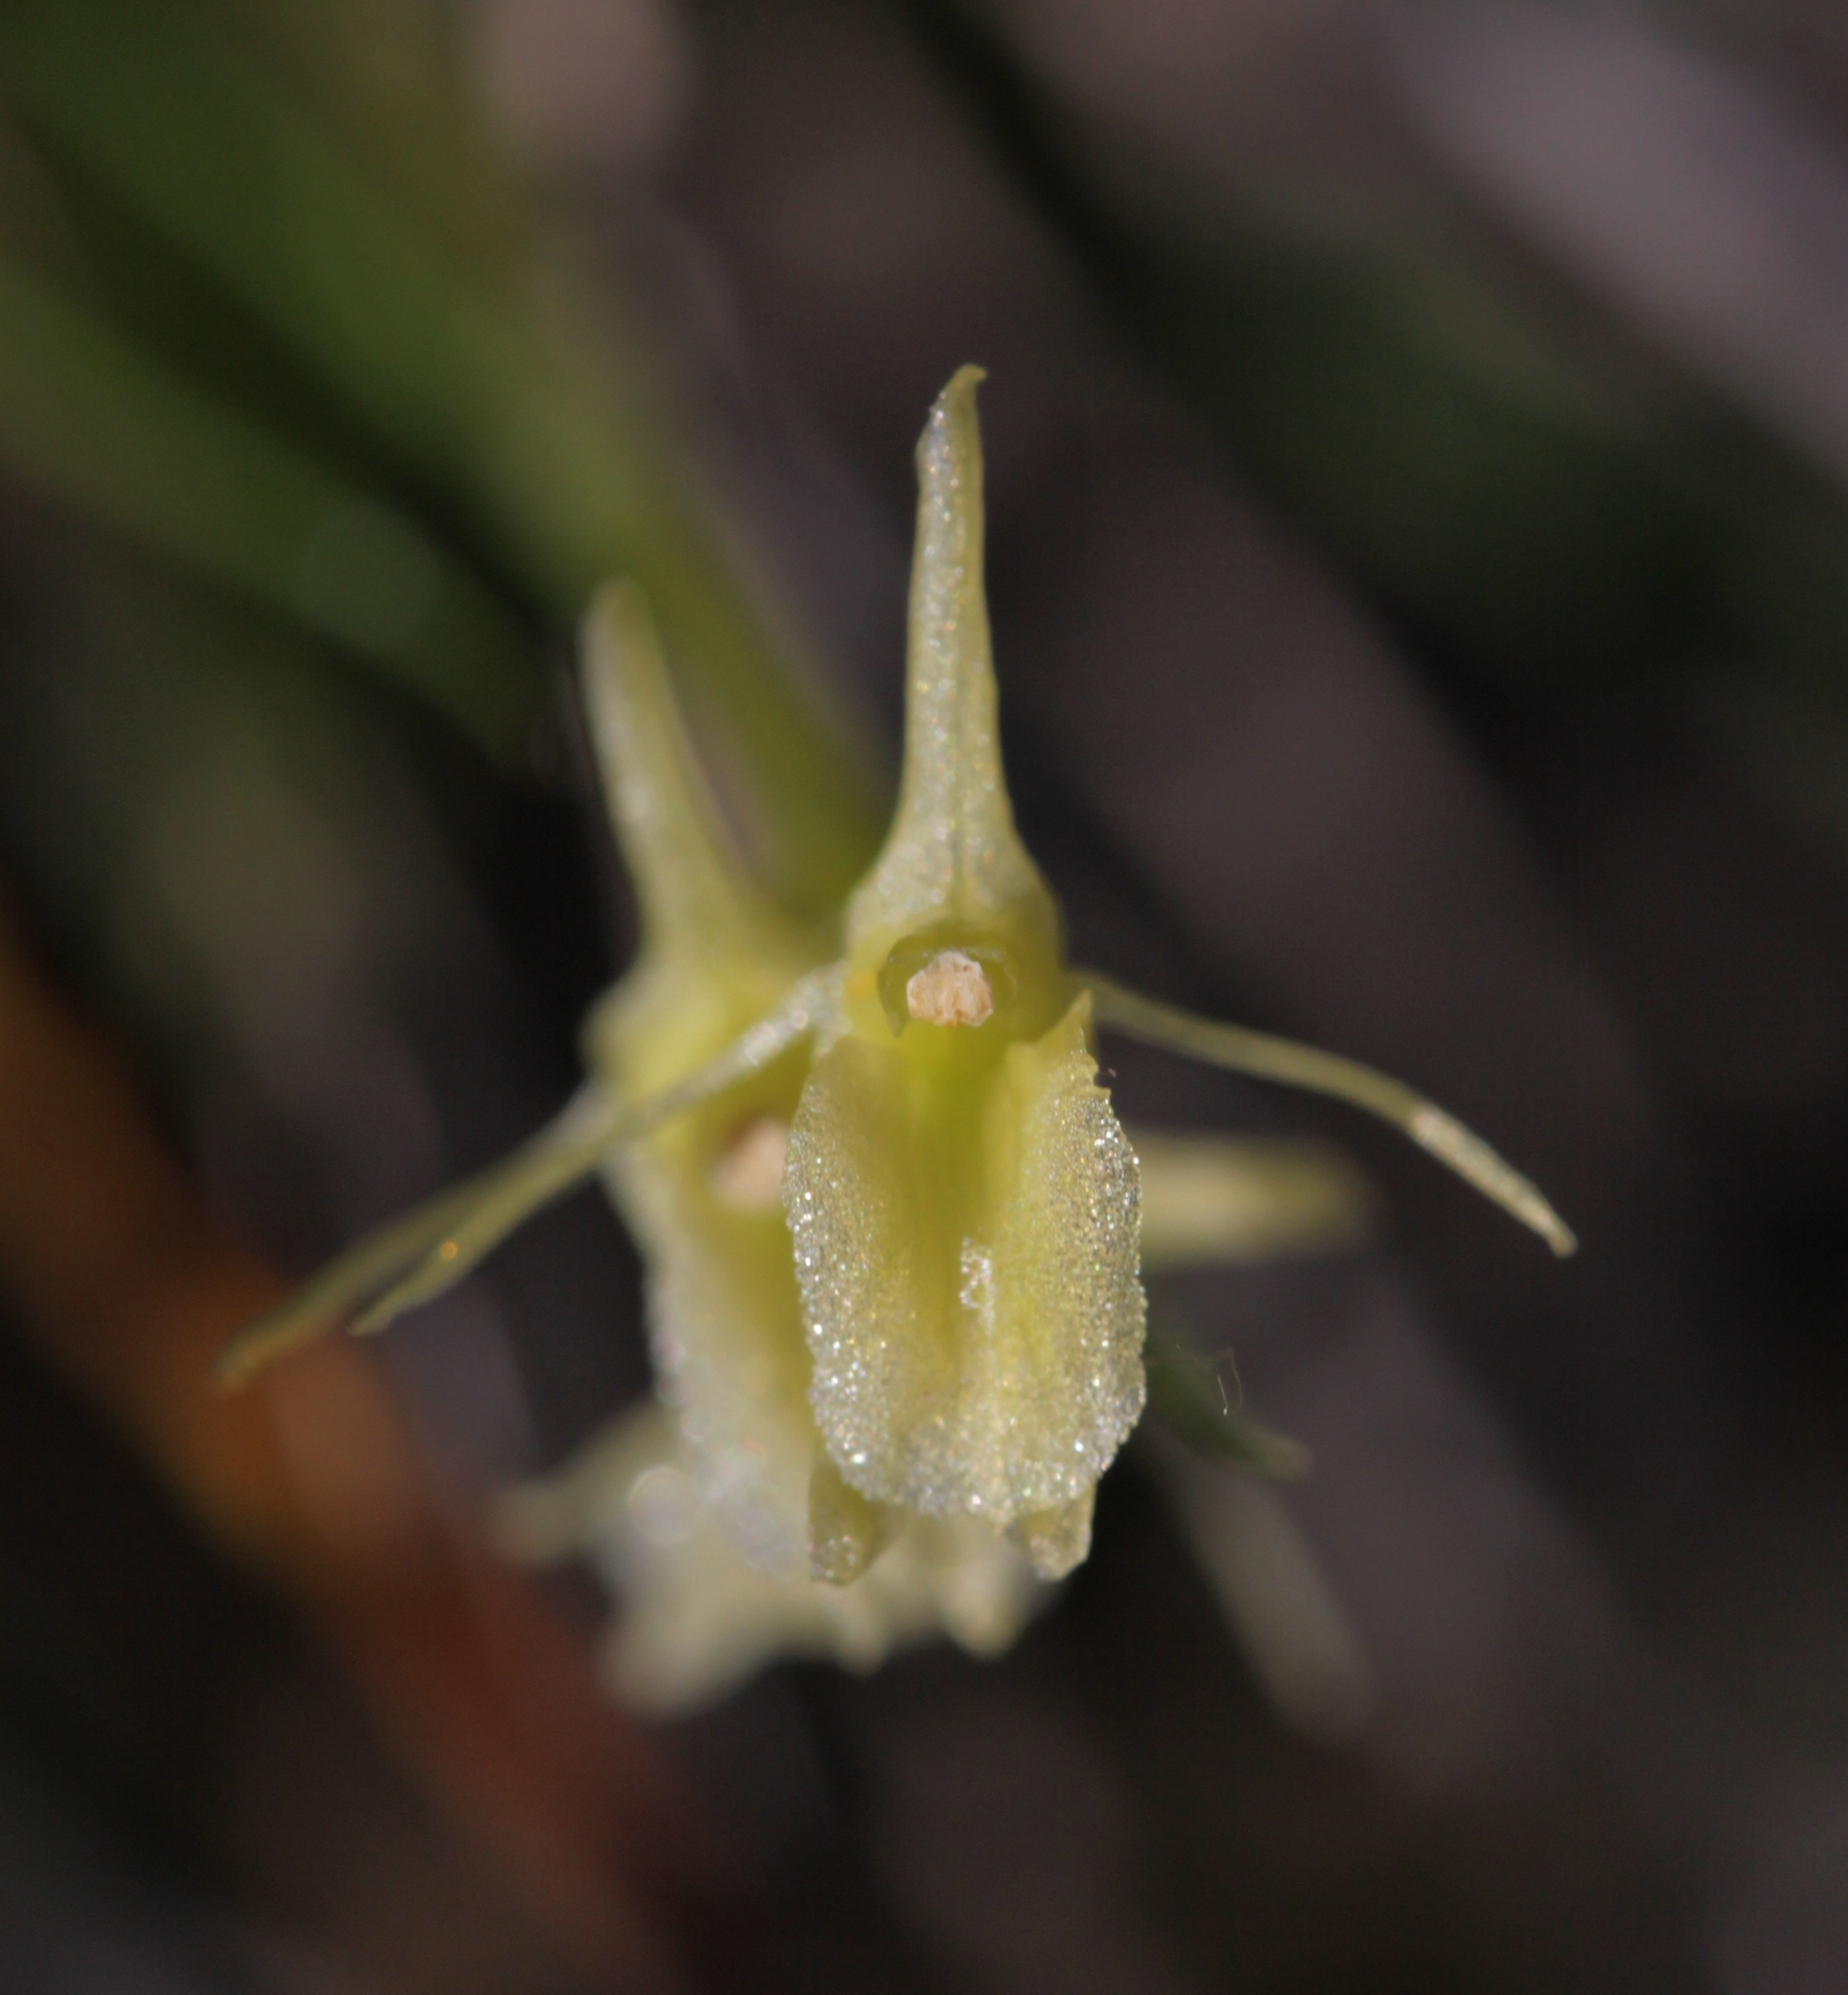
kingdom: Animalia
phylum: Arthropoda
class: Insecta
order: Coleoptera
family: Curculionidae
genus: Liparis
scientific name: Liparis loeselii
